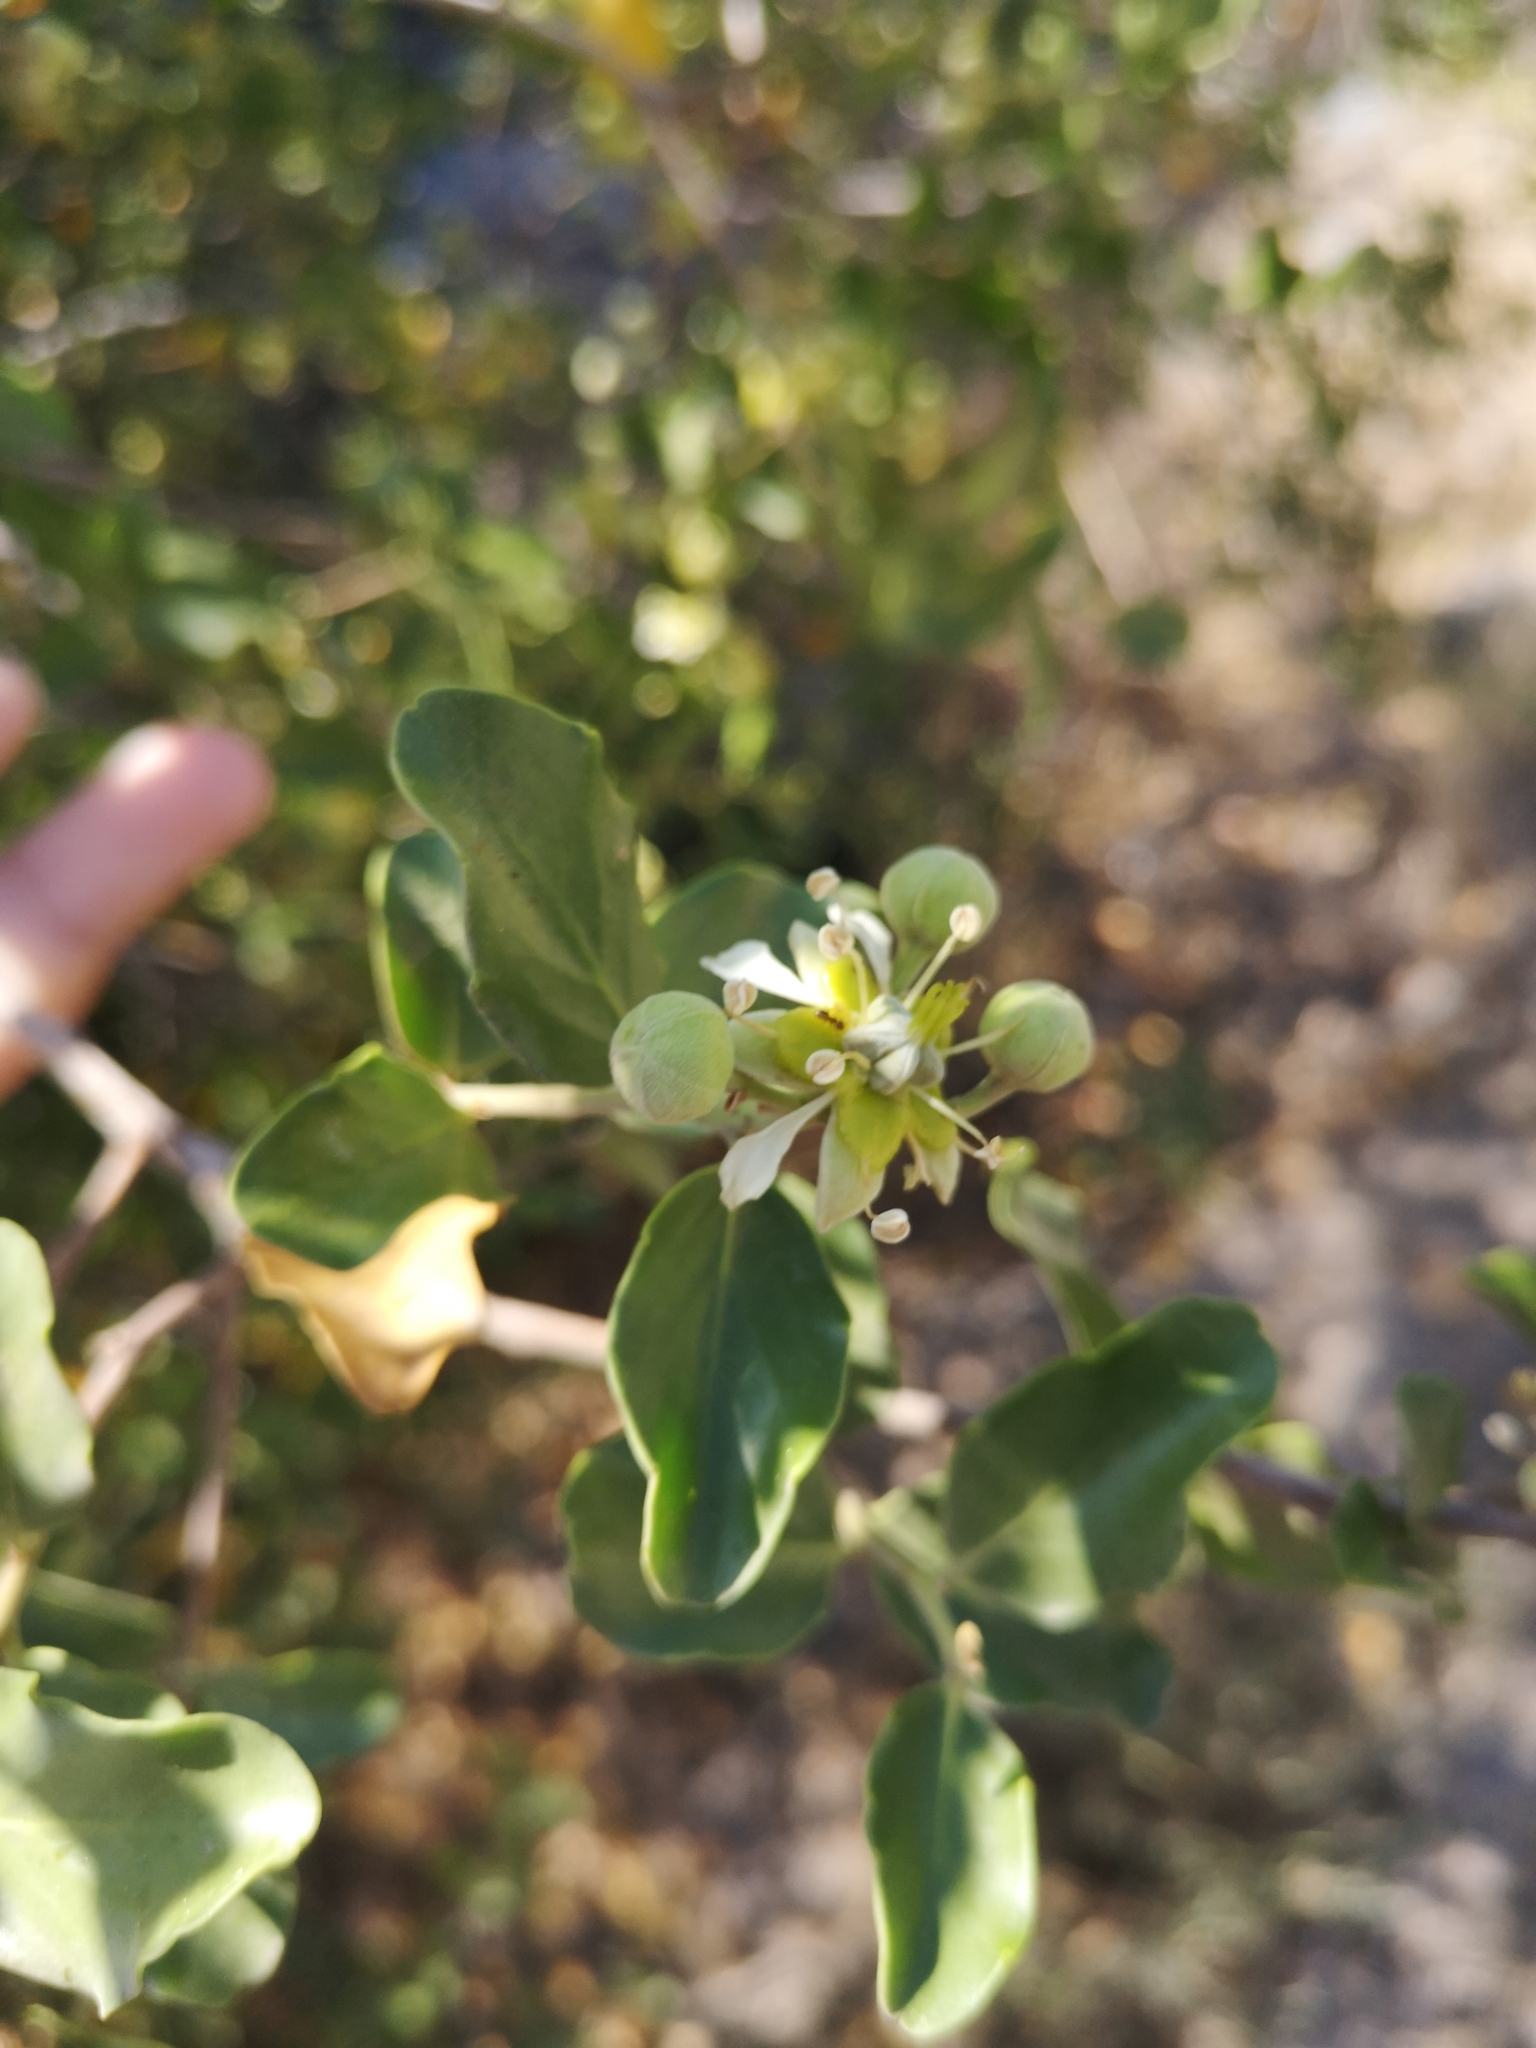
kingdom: Plantae
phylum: Tracheophyta
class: Magnoliopsida
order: Fabales
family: Quillajaceae
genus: Quillaja
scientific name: Quillaja saponaria
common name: Murillo's-bark
